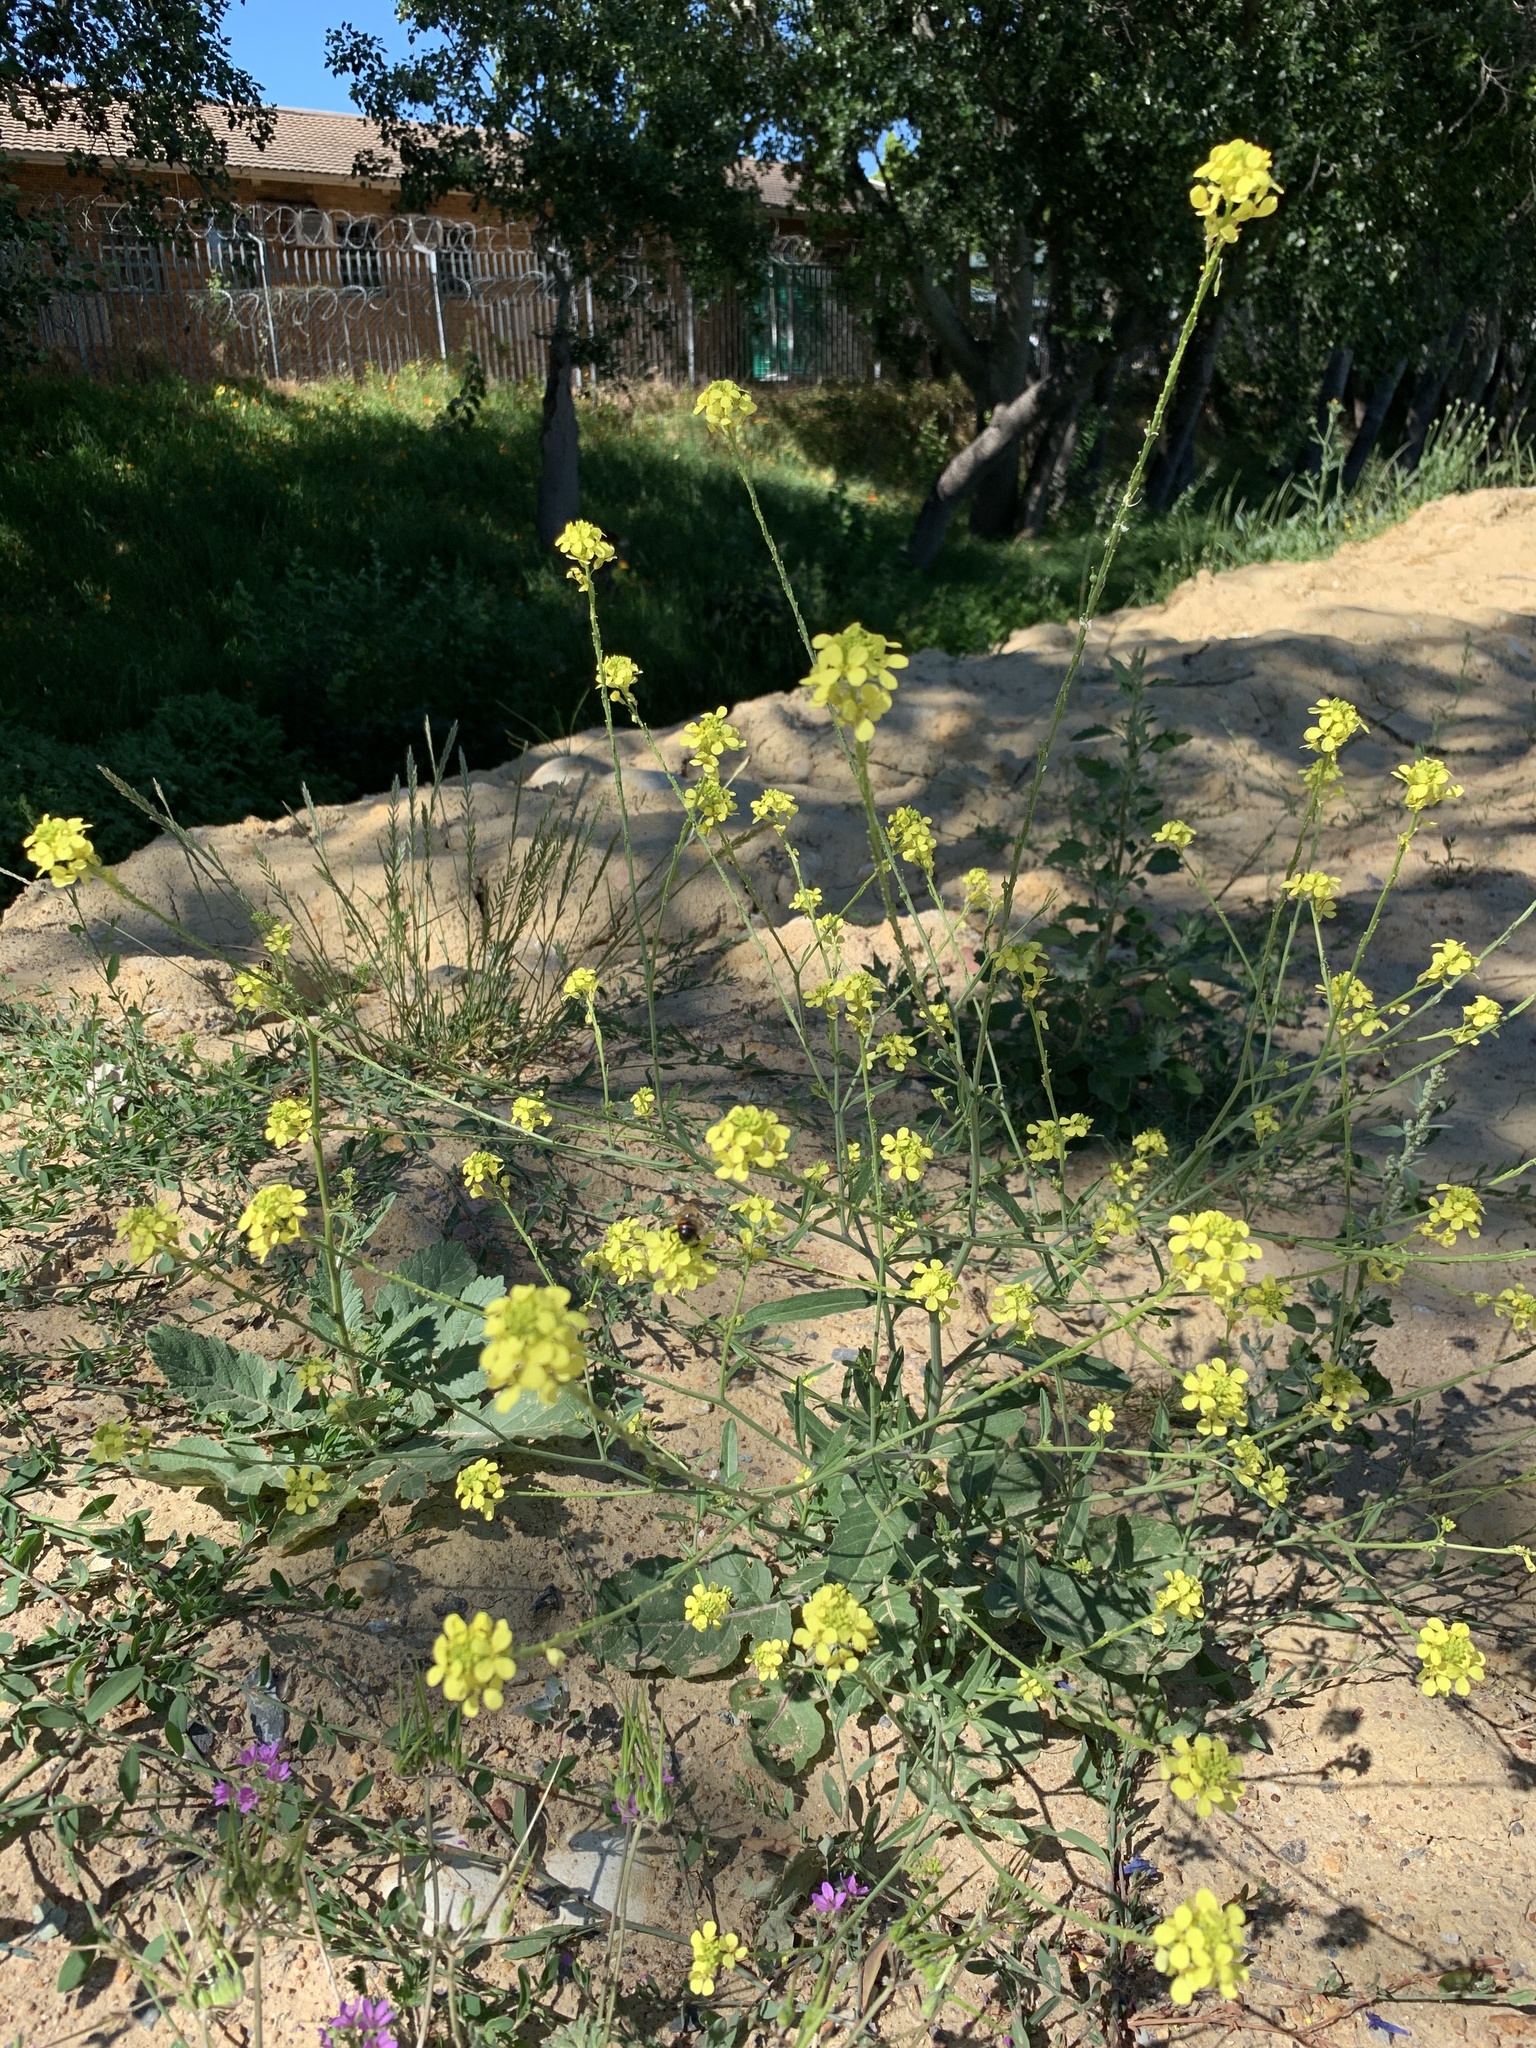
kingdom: Plantae
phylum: Tracheophyta
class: Magnoliopsida
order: Brassicales
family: Brassicaceae
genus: Rapistrum
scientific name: Rapistrum rugosum
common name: Annual bastardcabbage
